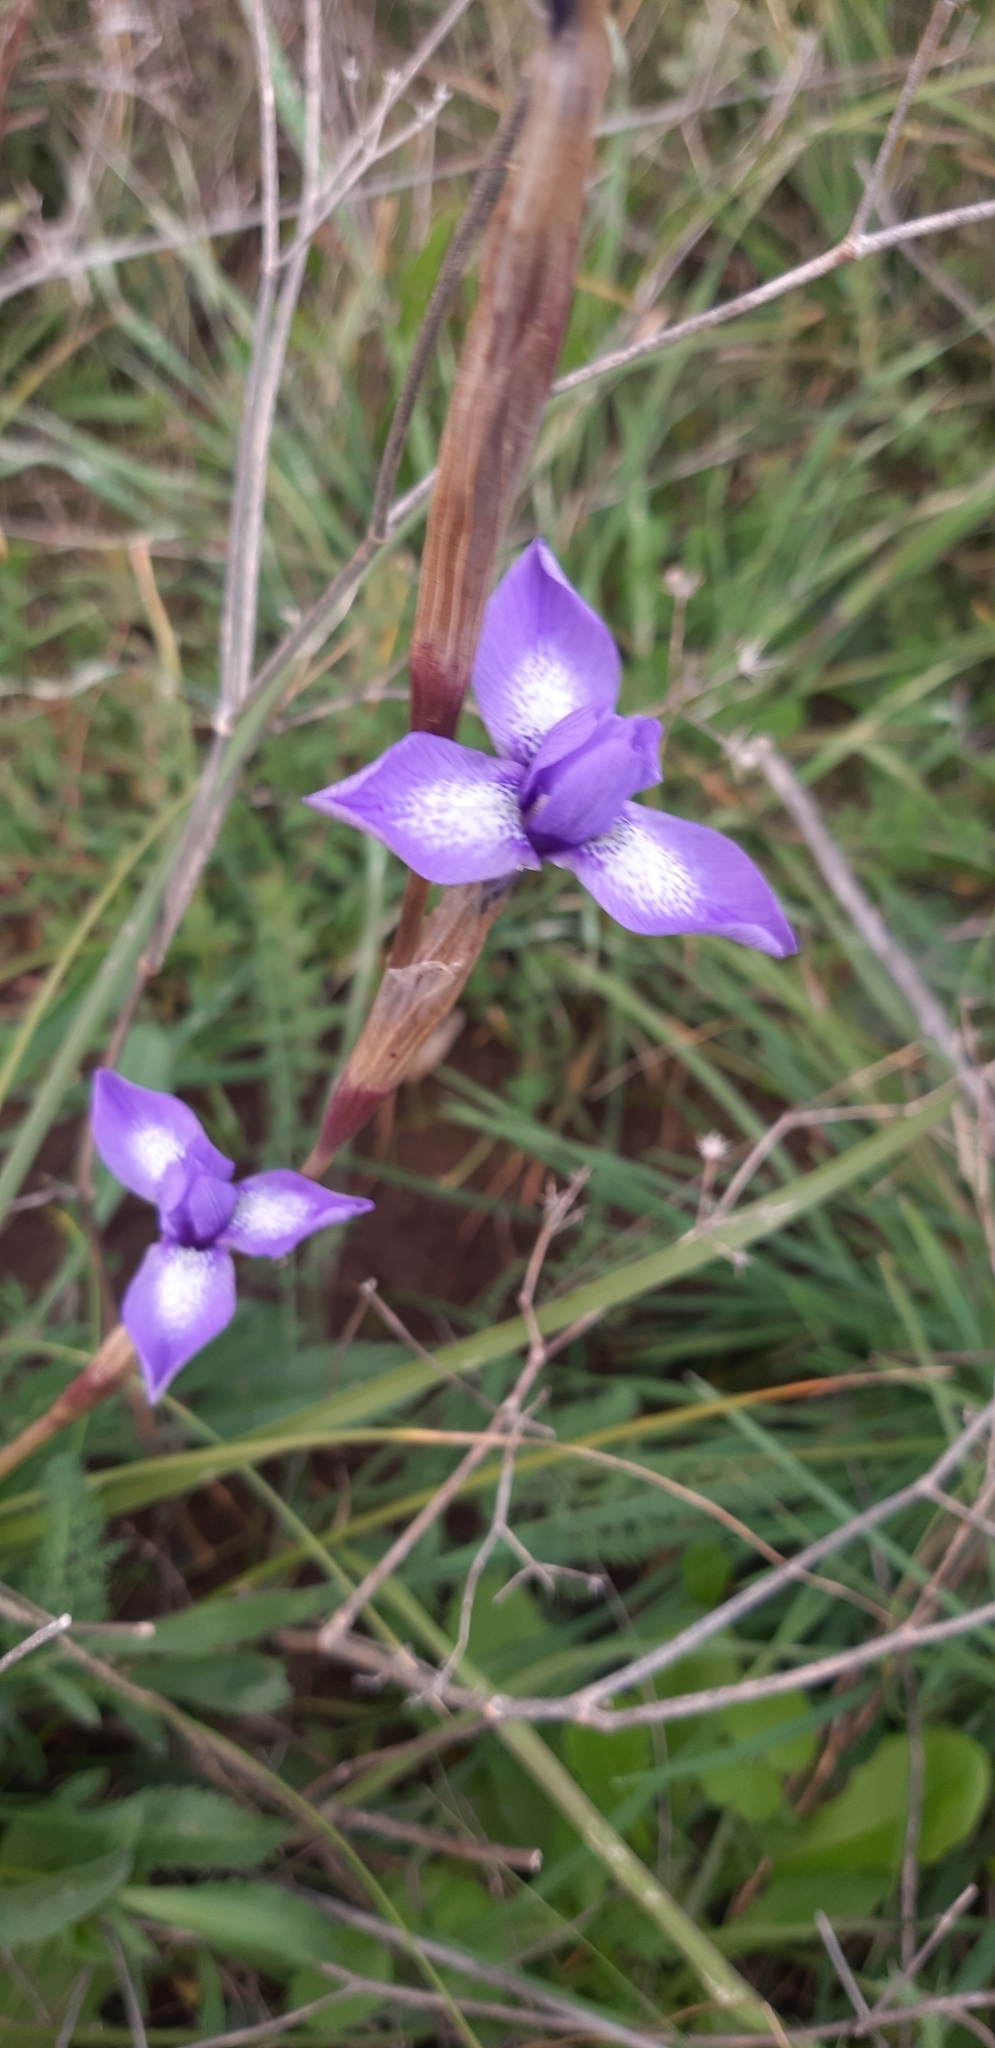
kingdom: Plantae
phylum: Tracheophyta
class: Liliopsida
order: Asparagales
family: Iridaceae
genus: Moraea
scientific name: Moraea sisyrinchium
